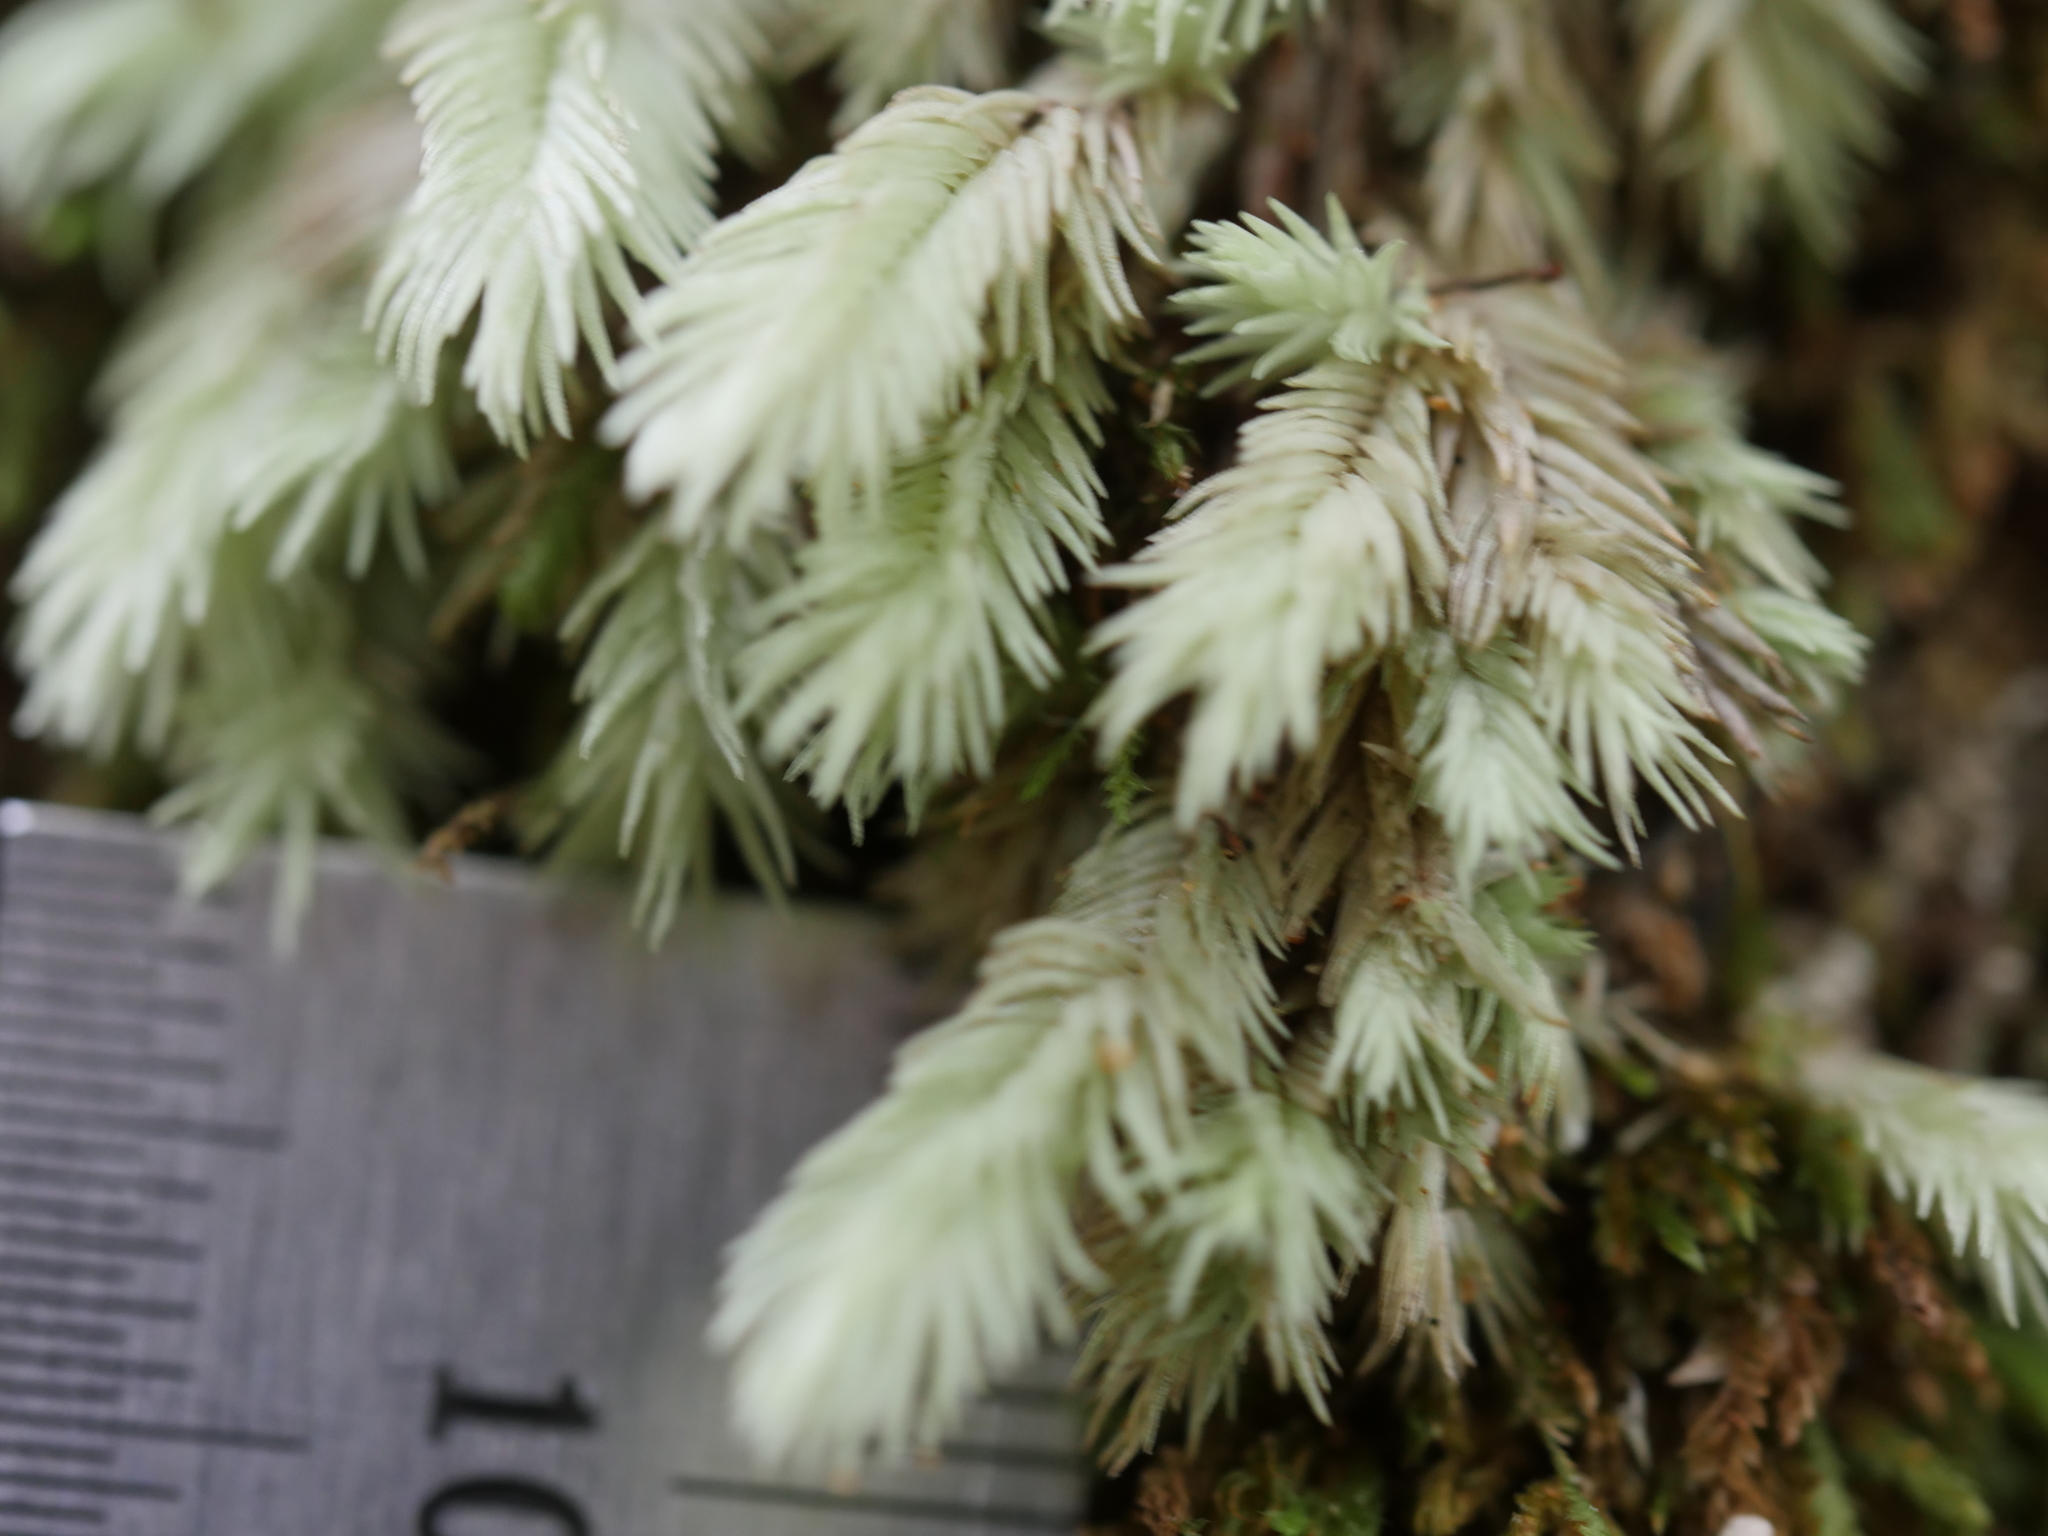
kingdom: Plantae
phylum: Bryophyta
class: Bryopsida
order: Dicranales
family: Leucobryaceae
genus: Leucobryum
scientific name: Leucobryum javense
